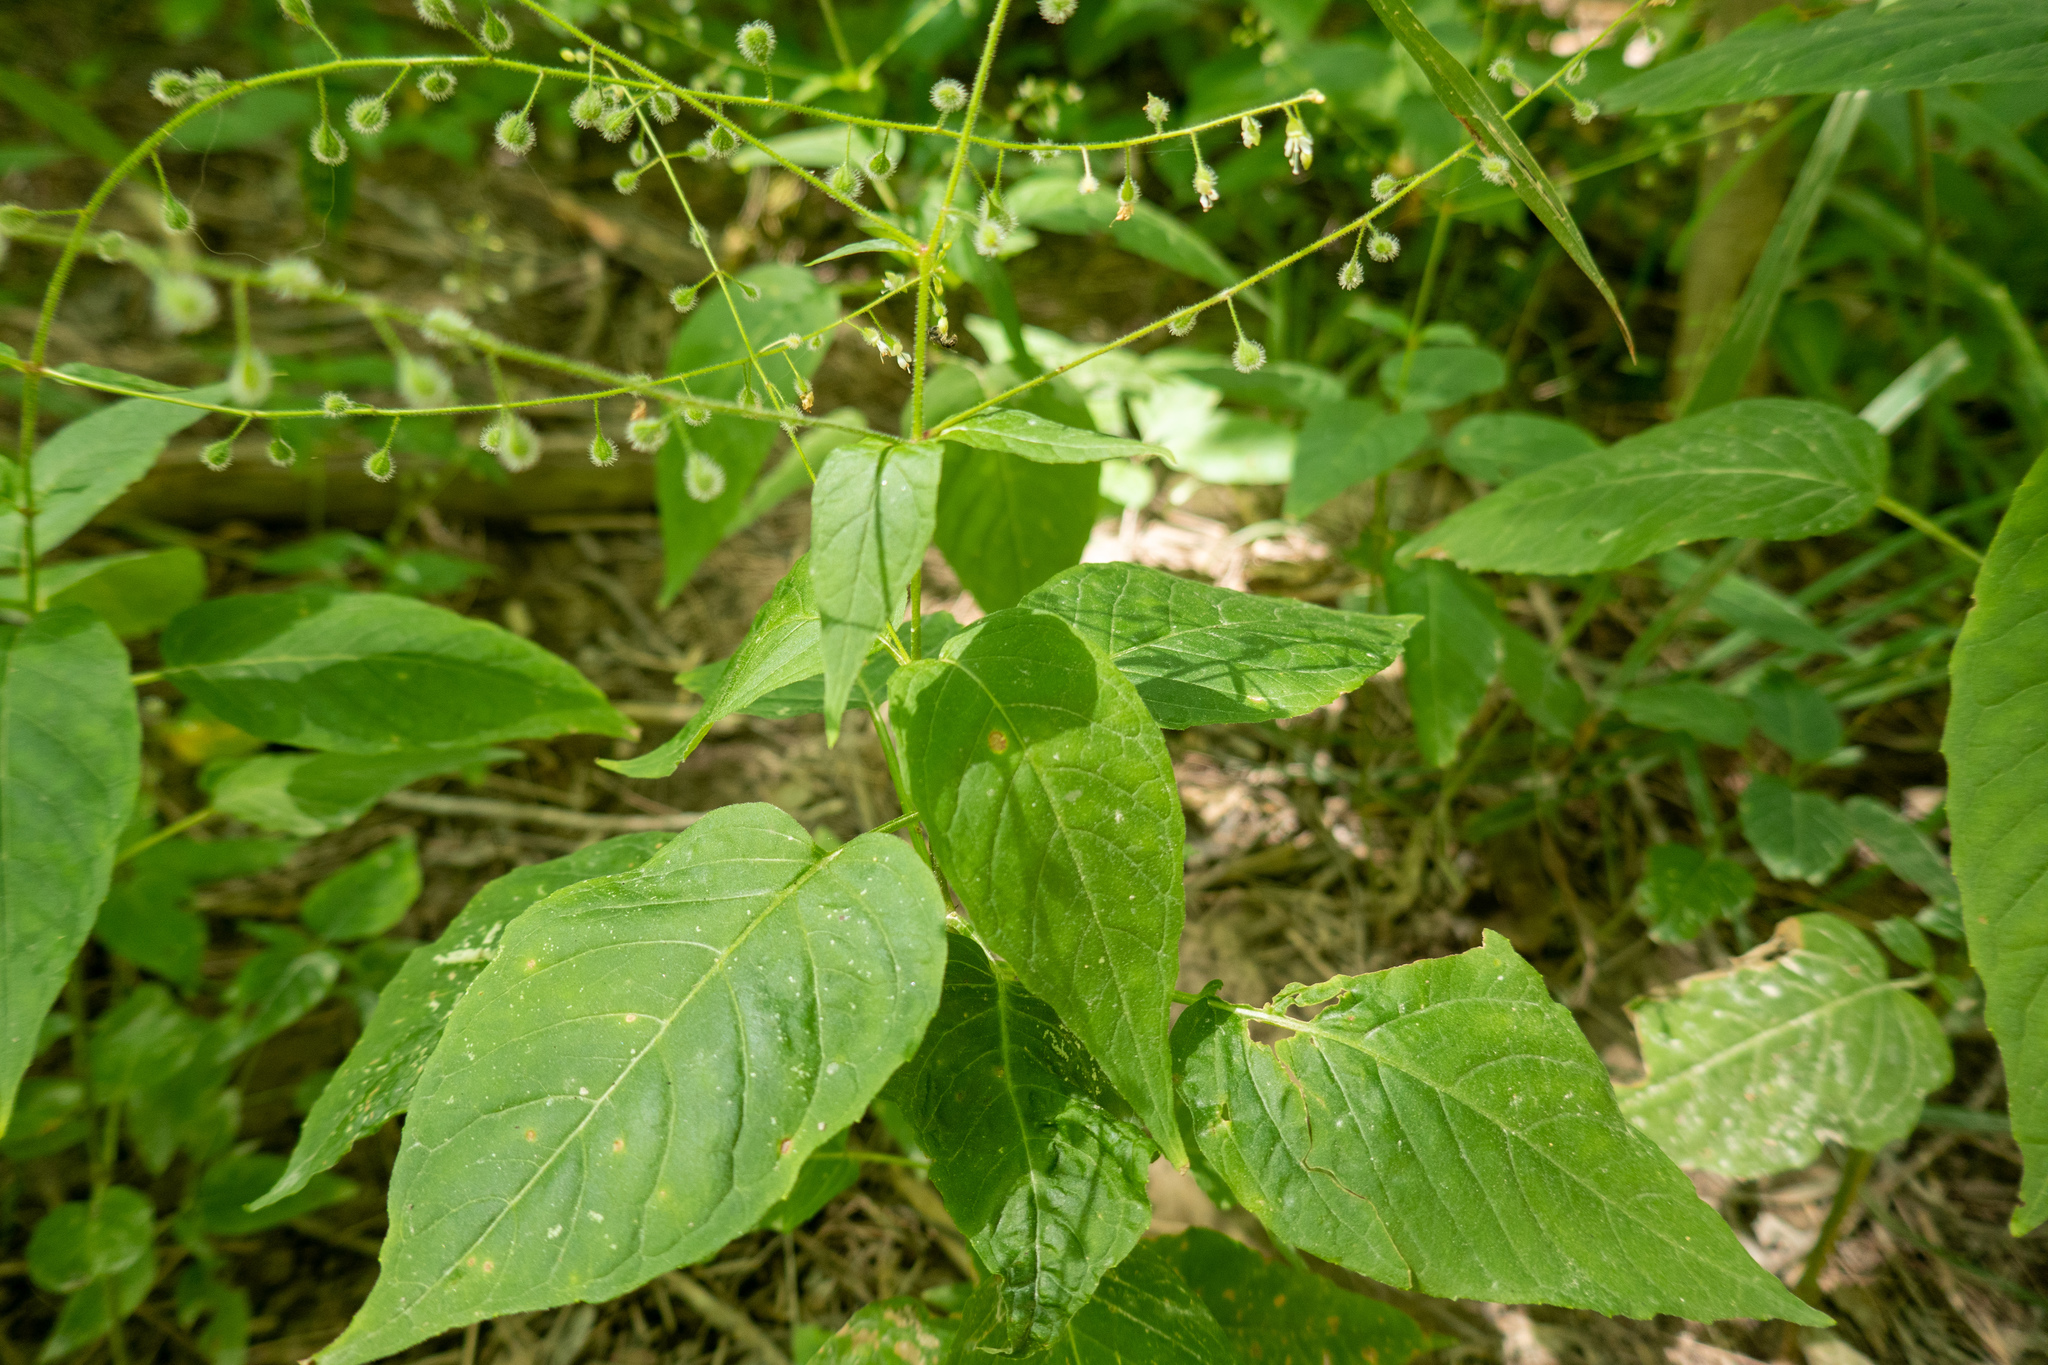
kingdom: Plantae
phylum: Tracheophyta
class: Magnoliopsida
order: Myrtales
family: Onagraceae
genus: Circaea
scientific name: Circaea canadensis
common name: Broad-leaved enchanter's nightshade
